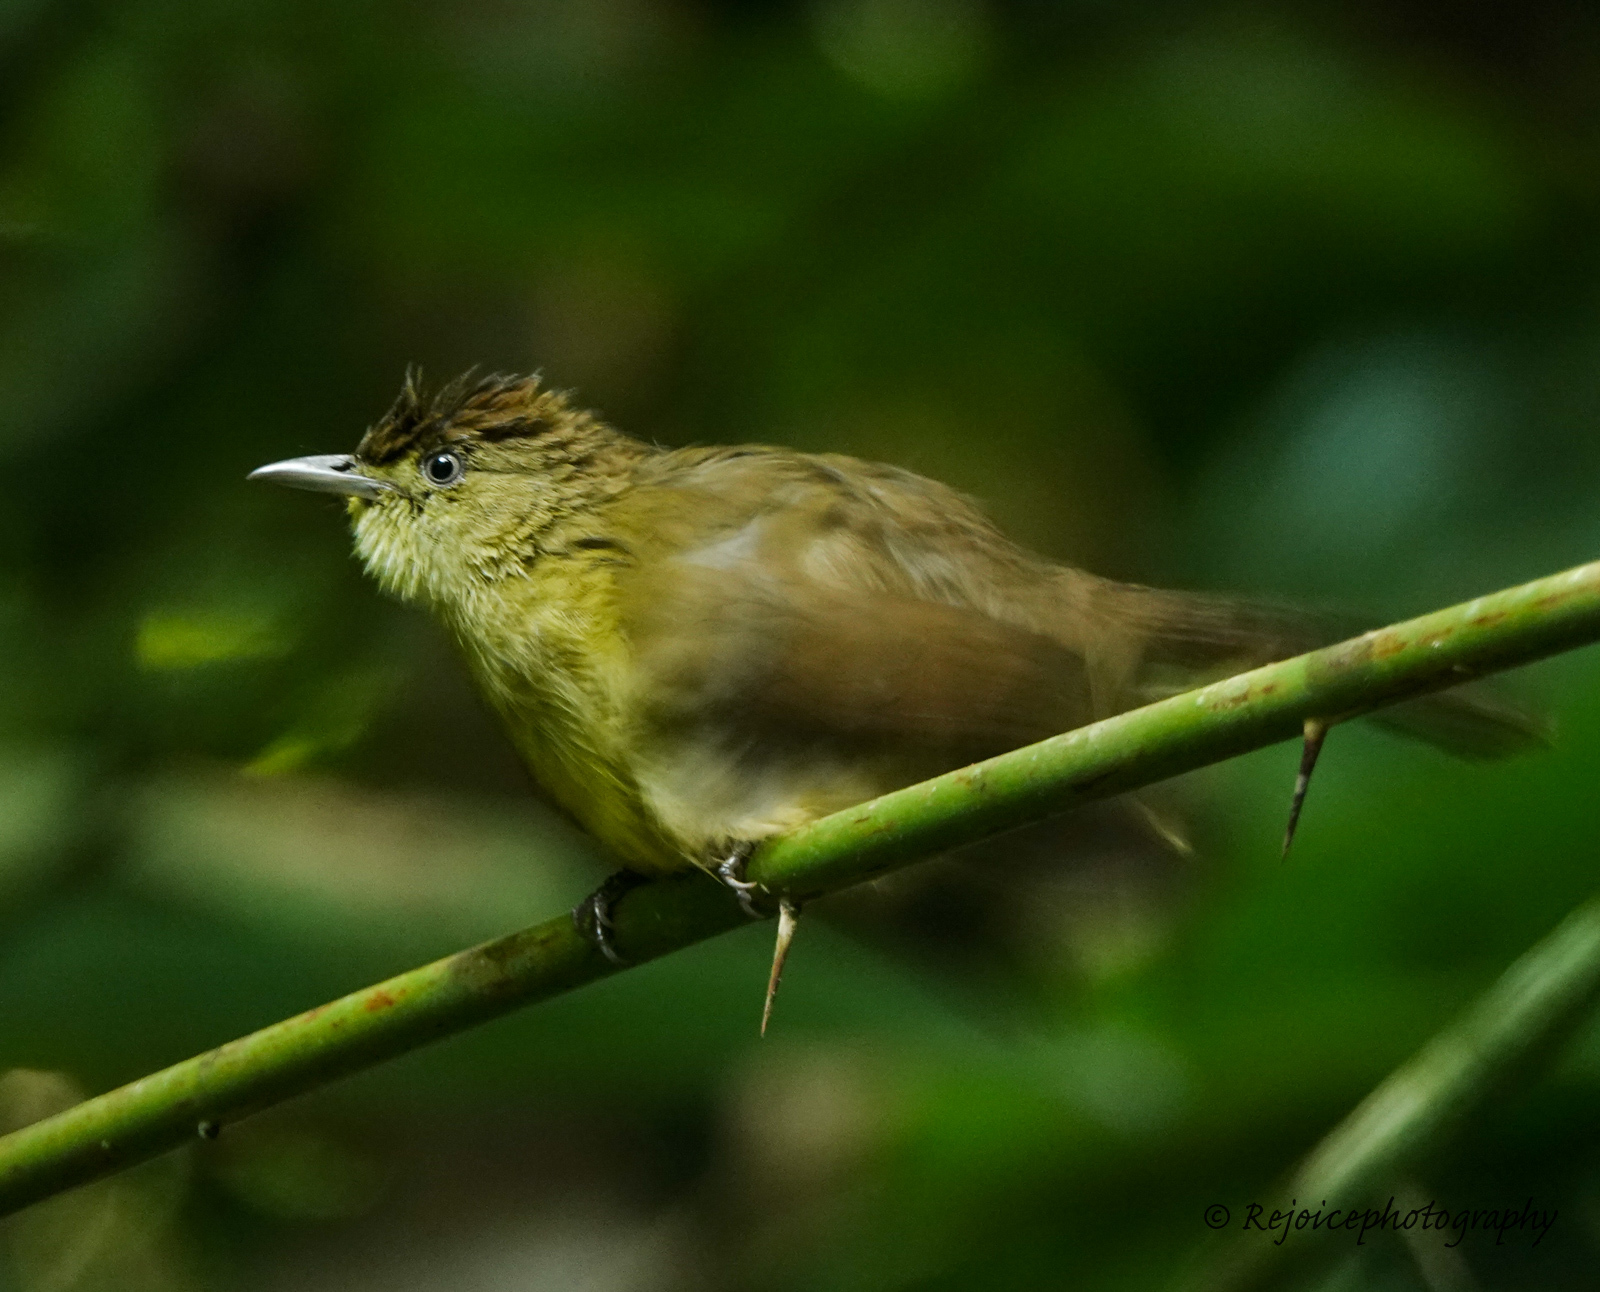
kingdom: Animalia
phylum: Chordata
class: Aves
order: Passeriformes
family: Pycnonotidae
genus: Iole
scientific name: Iole virescens
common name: Olive bulbul
